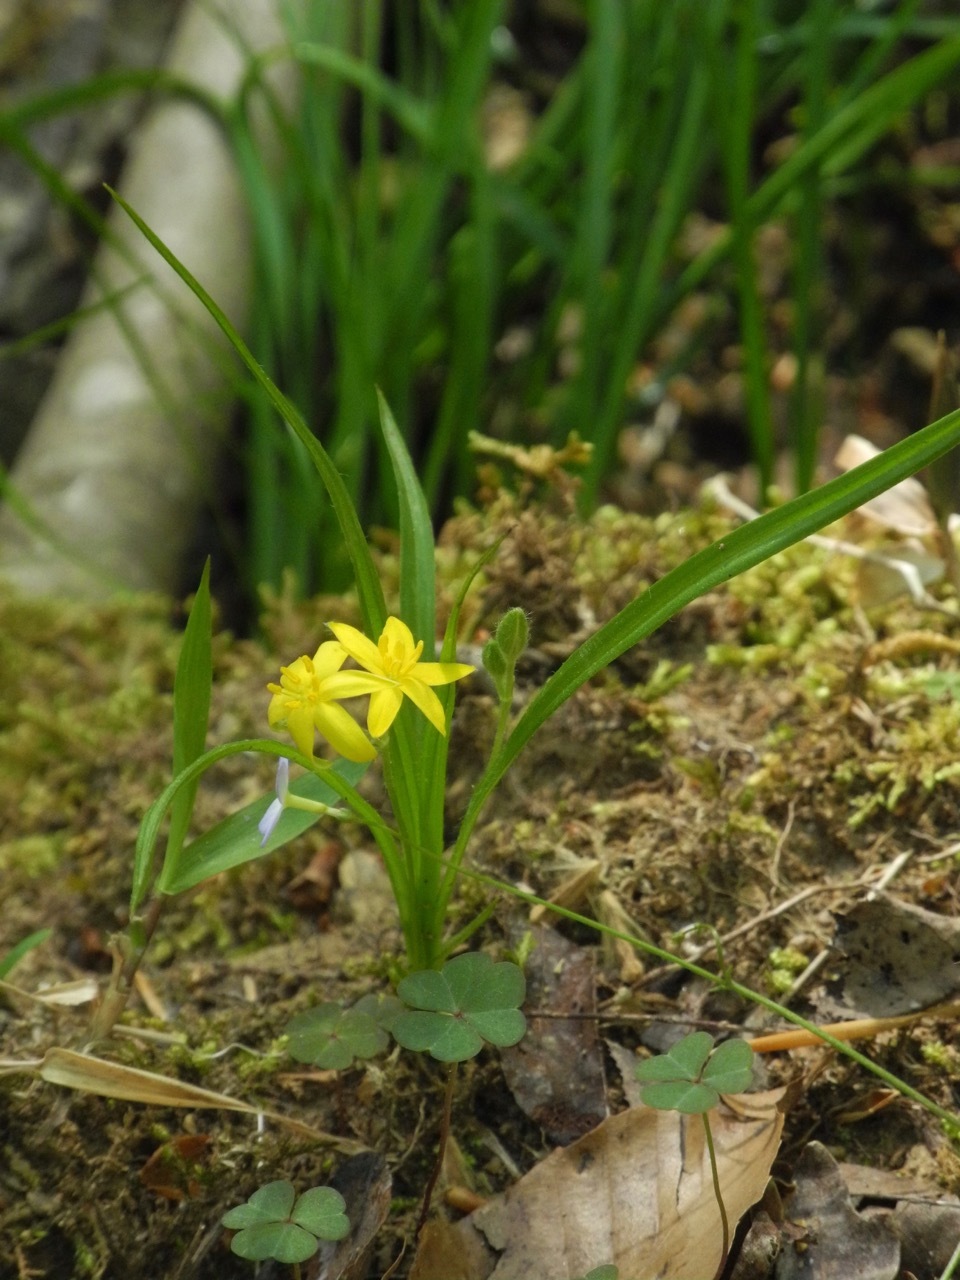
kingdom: Plantae
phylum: Tracheophyta
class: Liliopsida
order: Asparagales
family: Hypoxidaceae
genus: Hypoxis
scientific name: Hypoxis hirsuta
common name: Common goldstar
